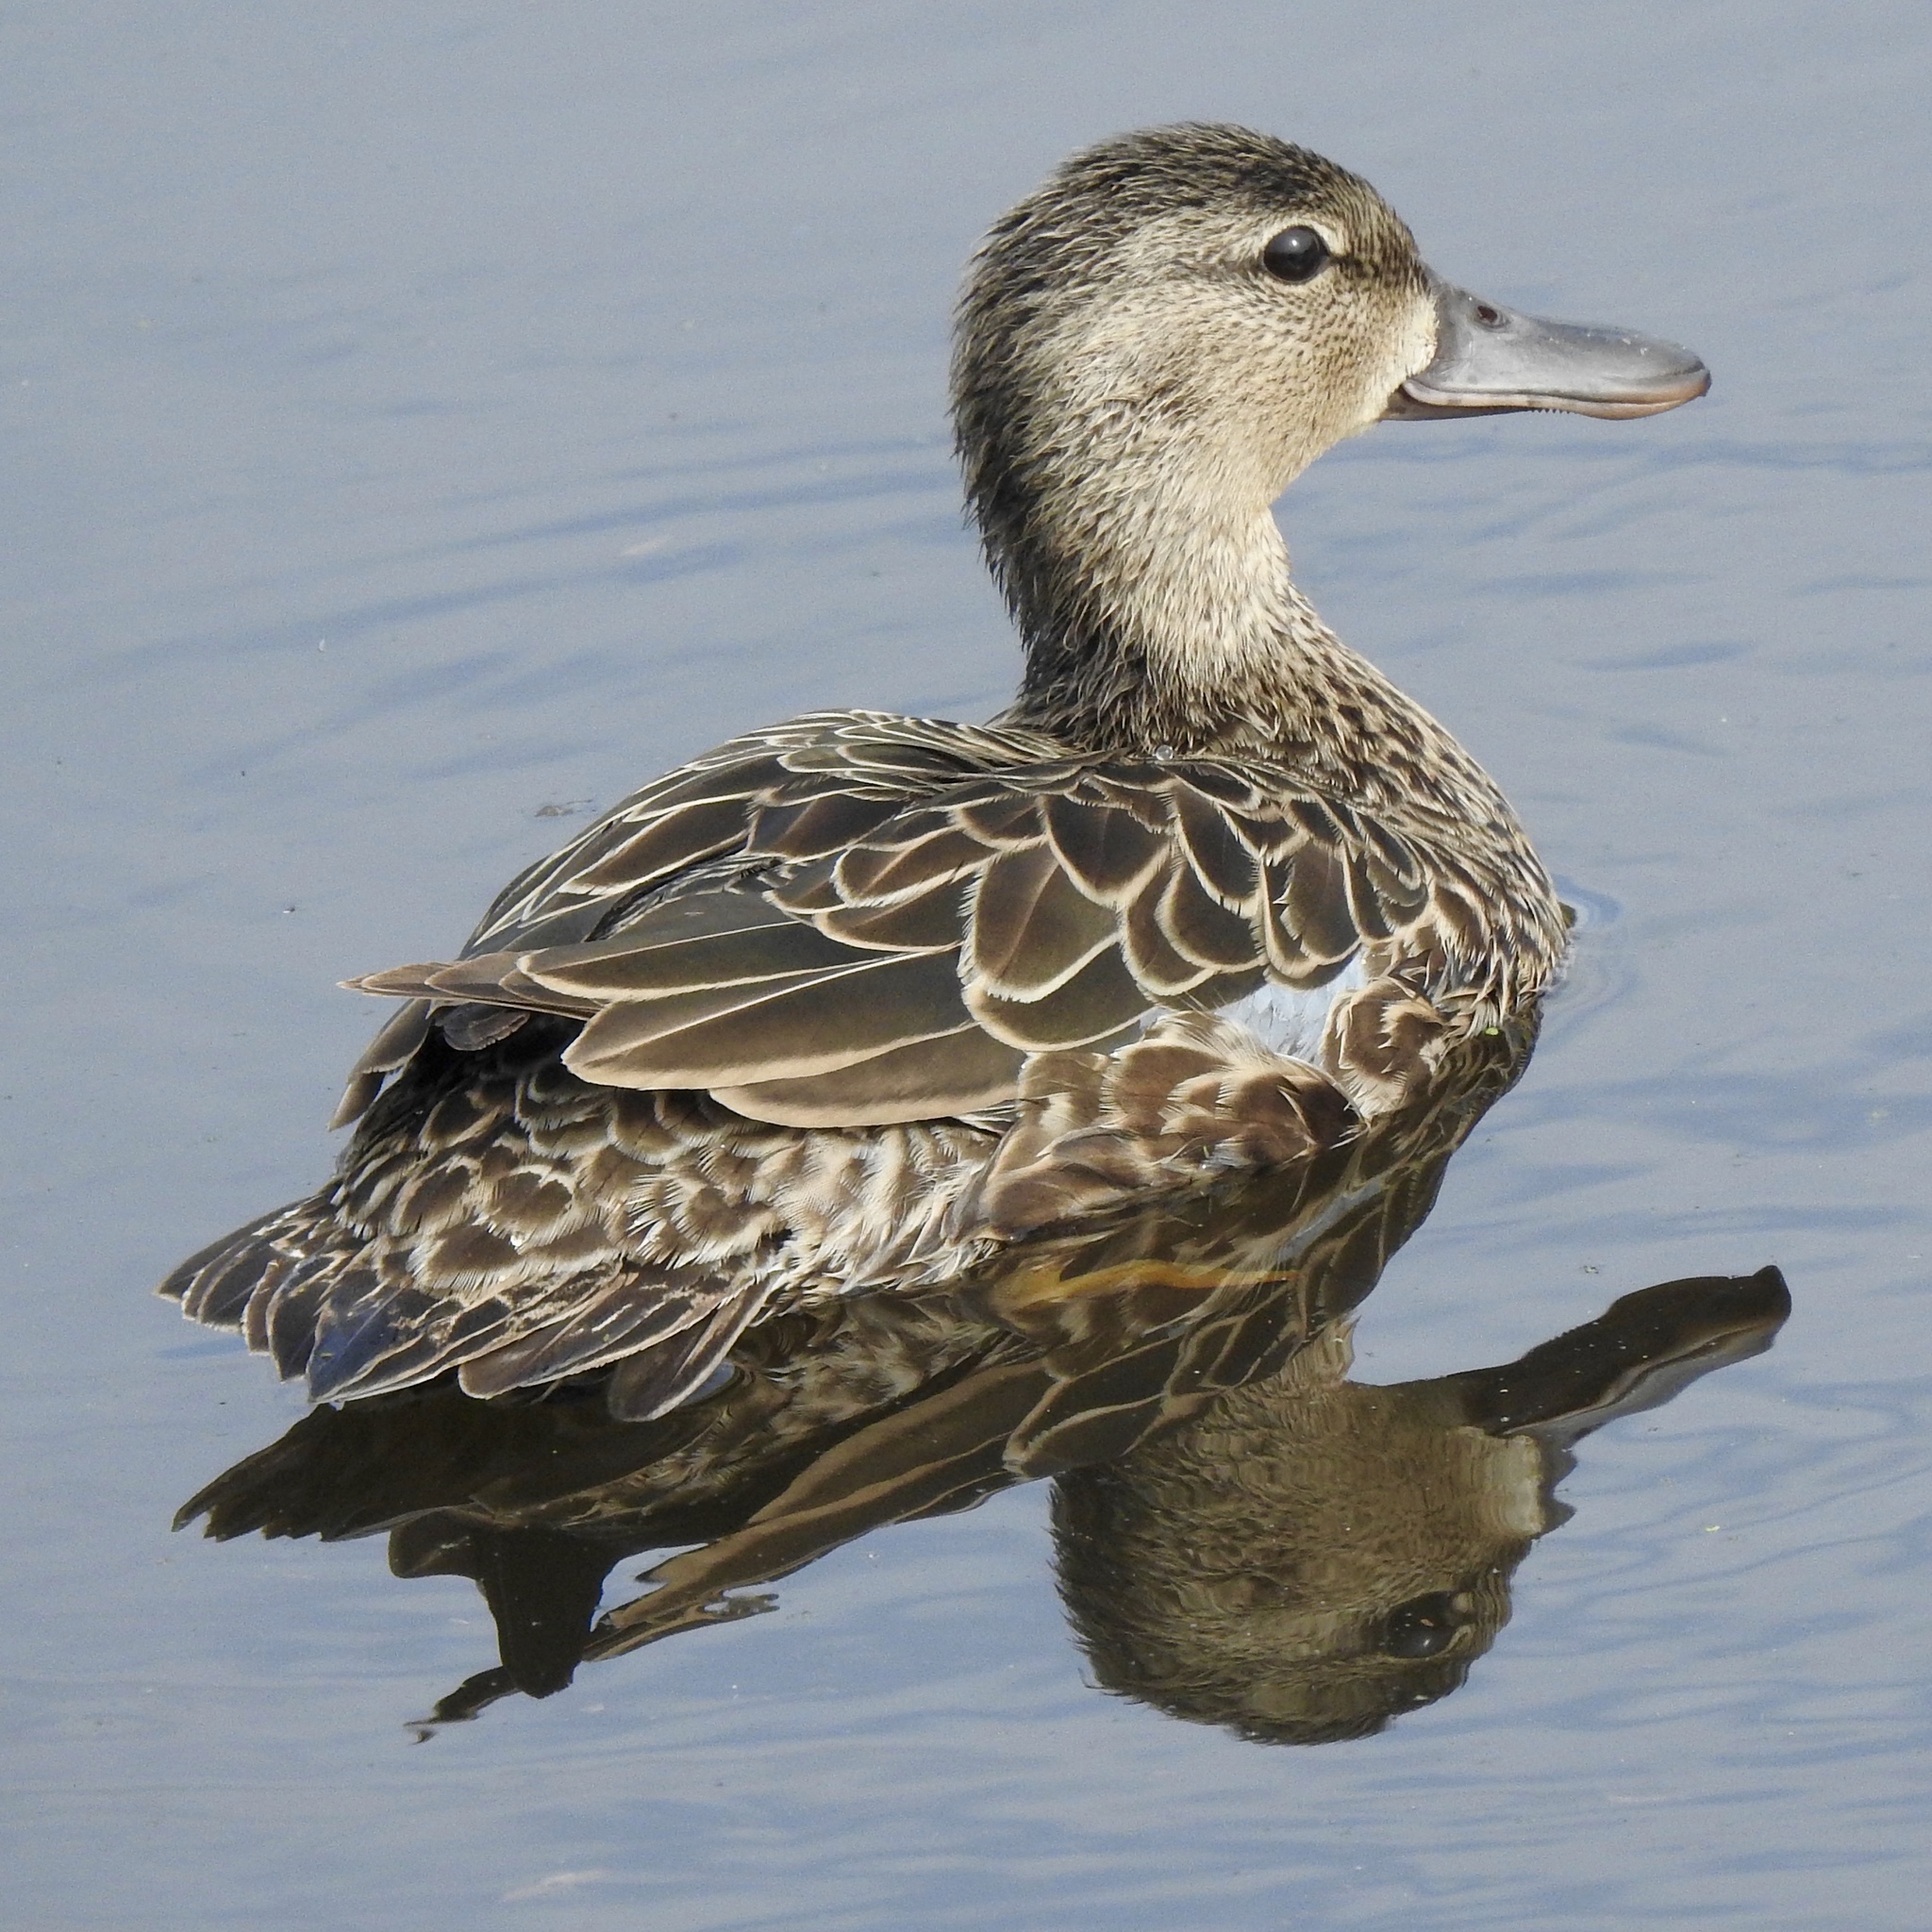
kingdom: Animalia
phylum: Chordata
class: Aves
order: Anseriformes
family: Anatidae
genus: Spatula
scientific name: Spatula discors
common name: Blue-winged teal
